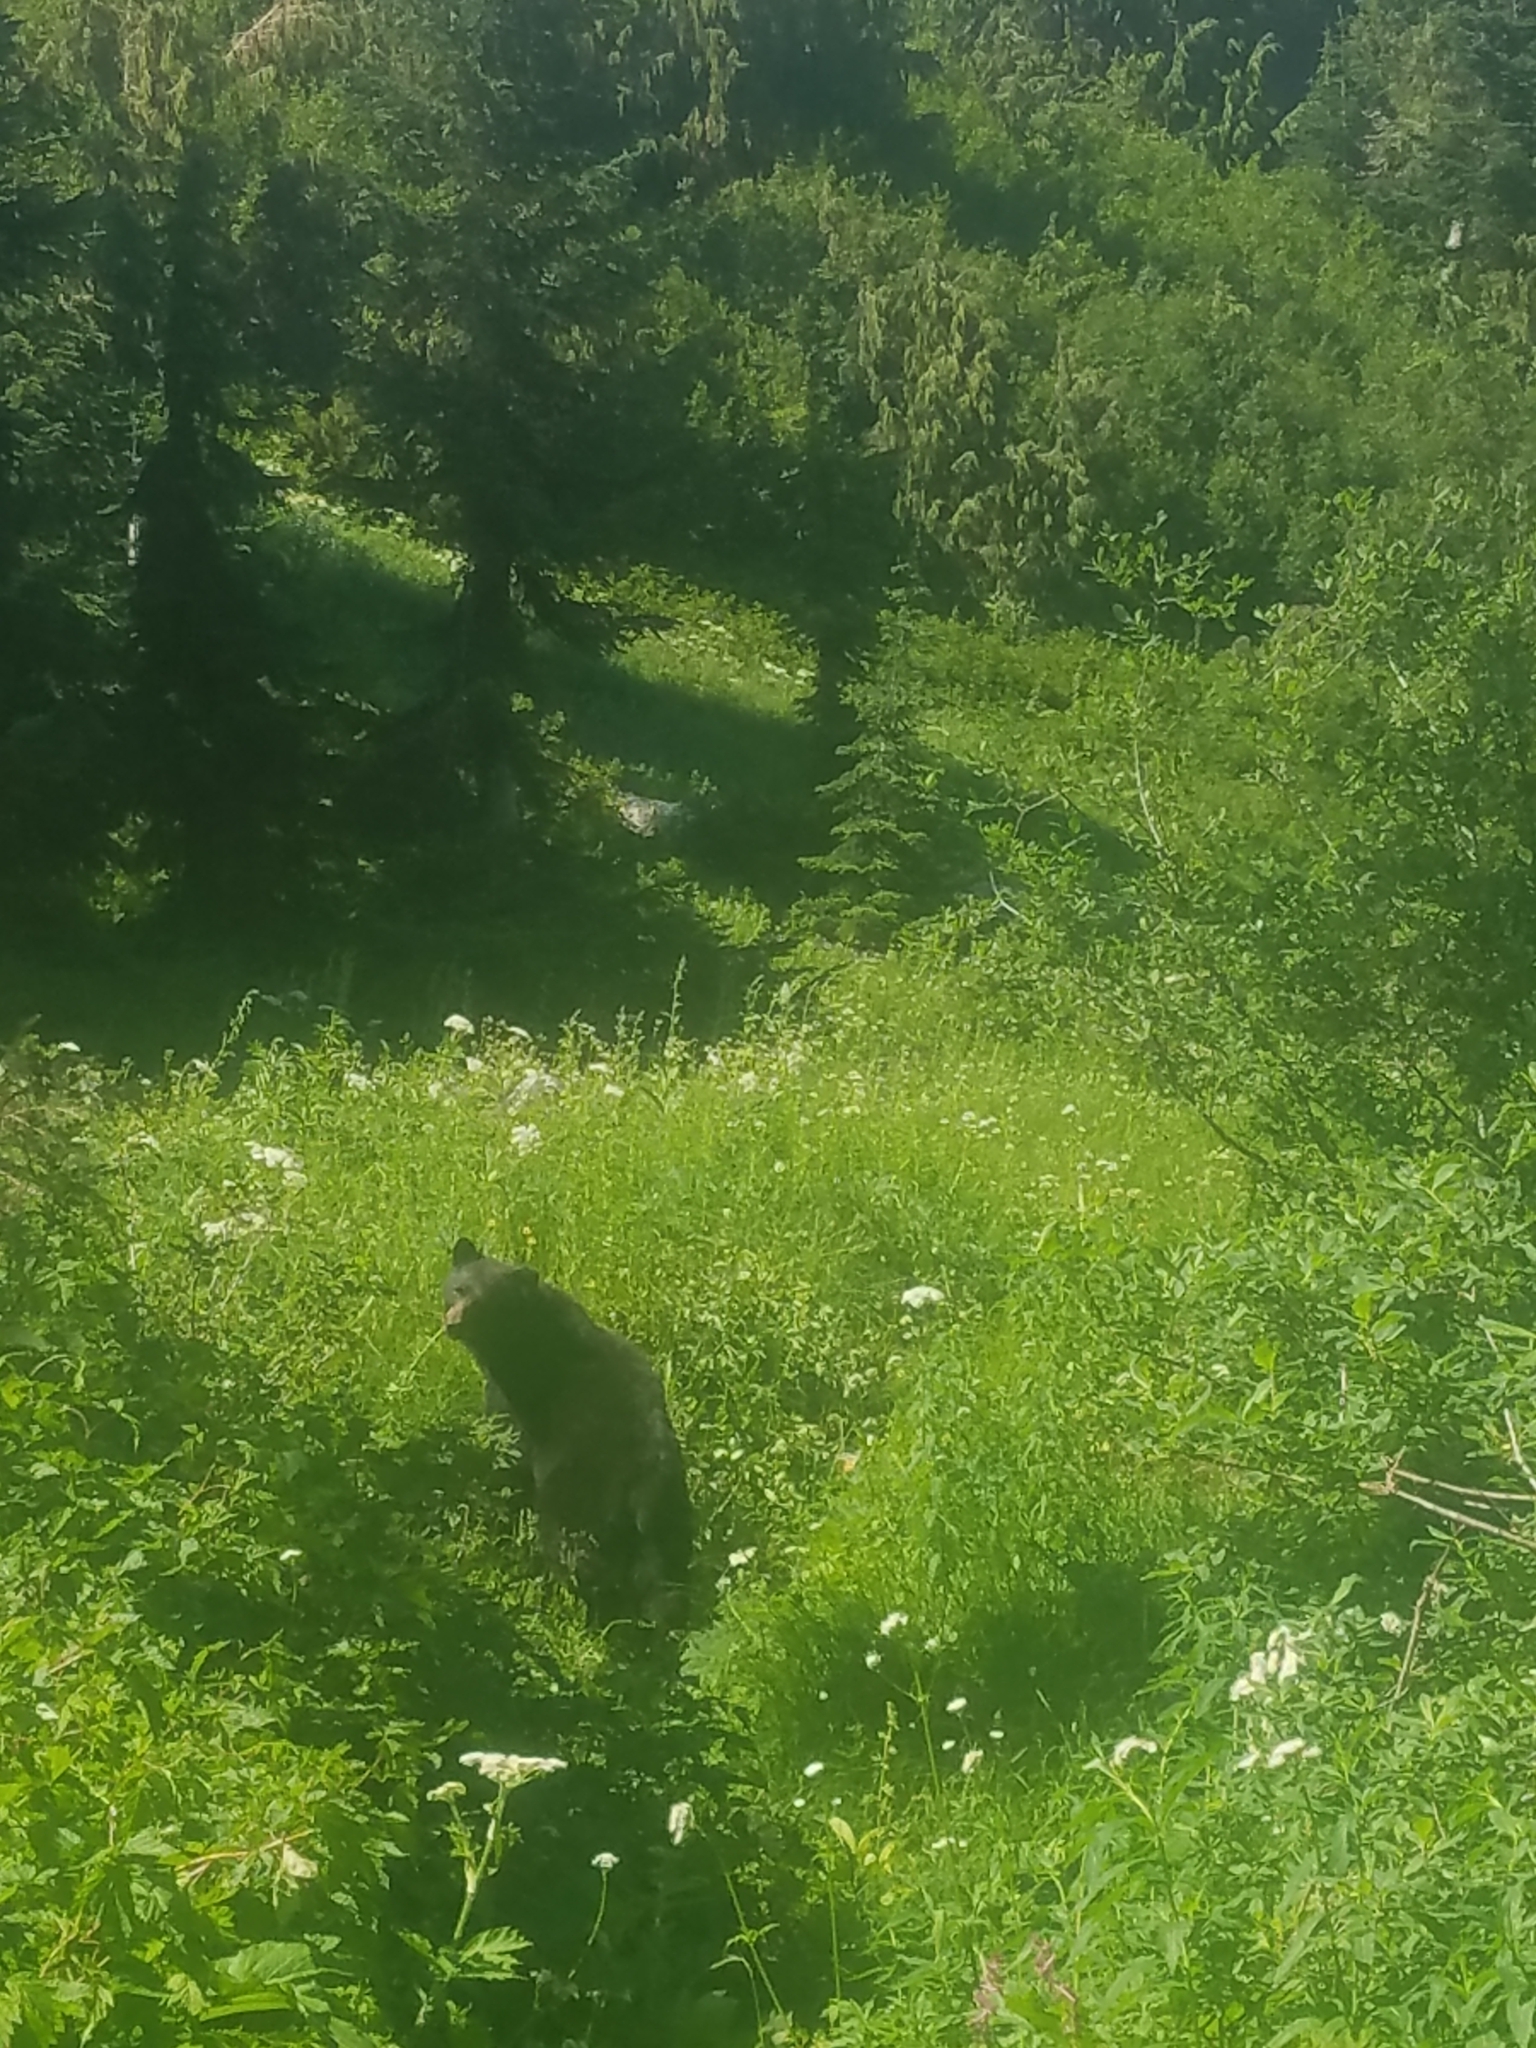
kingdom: Animalia
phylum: Chordata
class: Mammalia
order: Carnivora
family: Ursidae
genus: Ursus
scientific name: Ursus americanus
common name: American black bear
